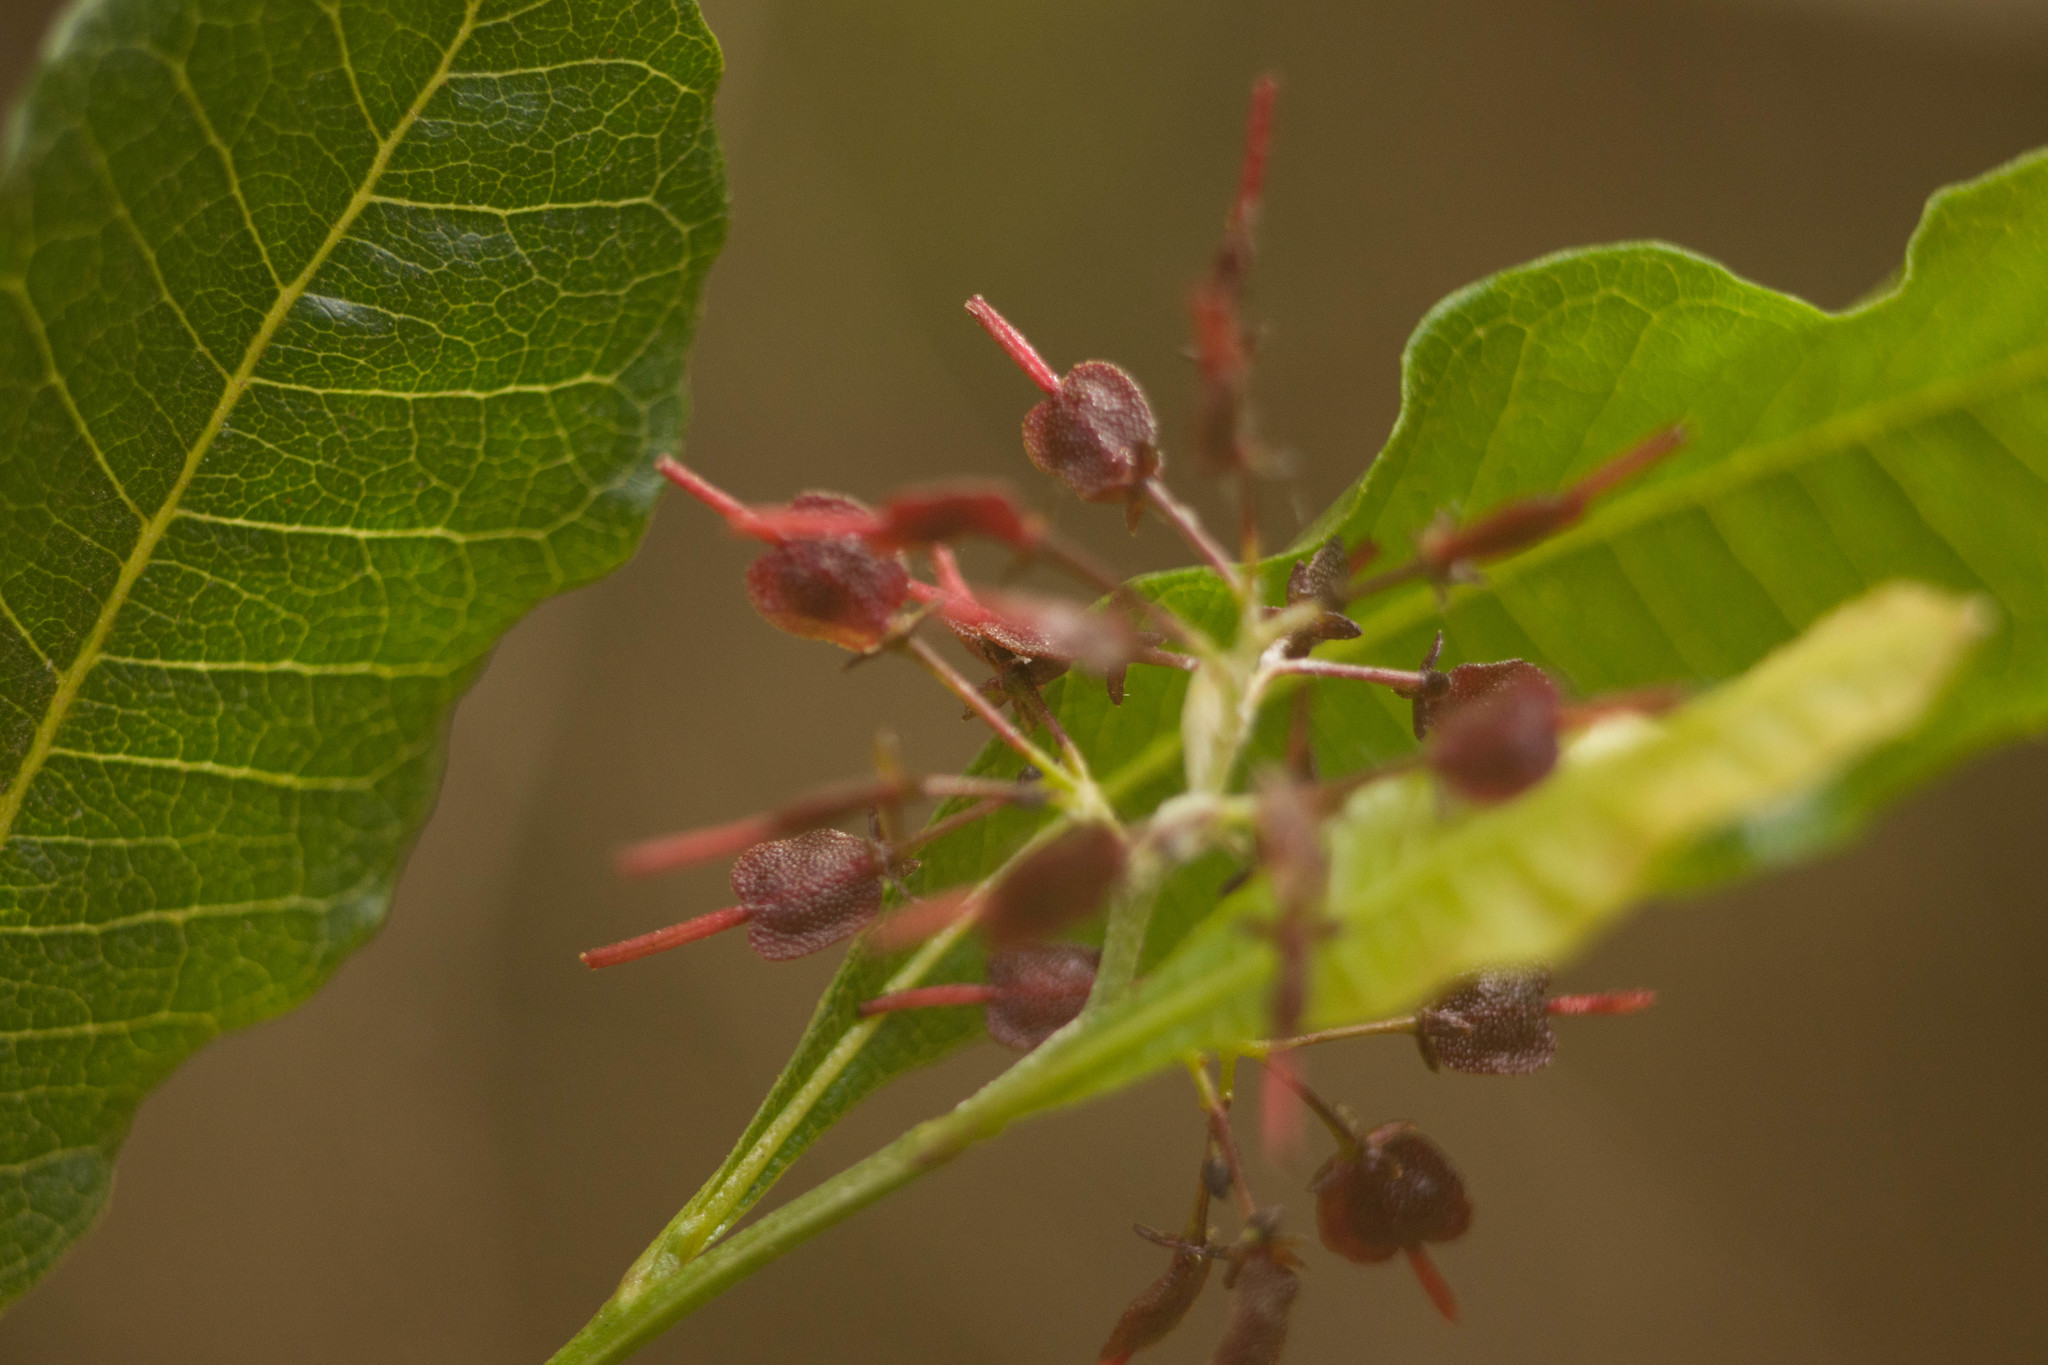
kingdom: Plantae
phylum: Tracheophyta
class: Magnoliopsida
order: Sapindales
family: Sapindaceae
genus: Dodonaea
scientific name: Dodonaea viscosa
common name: Hopbush
